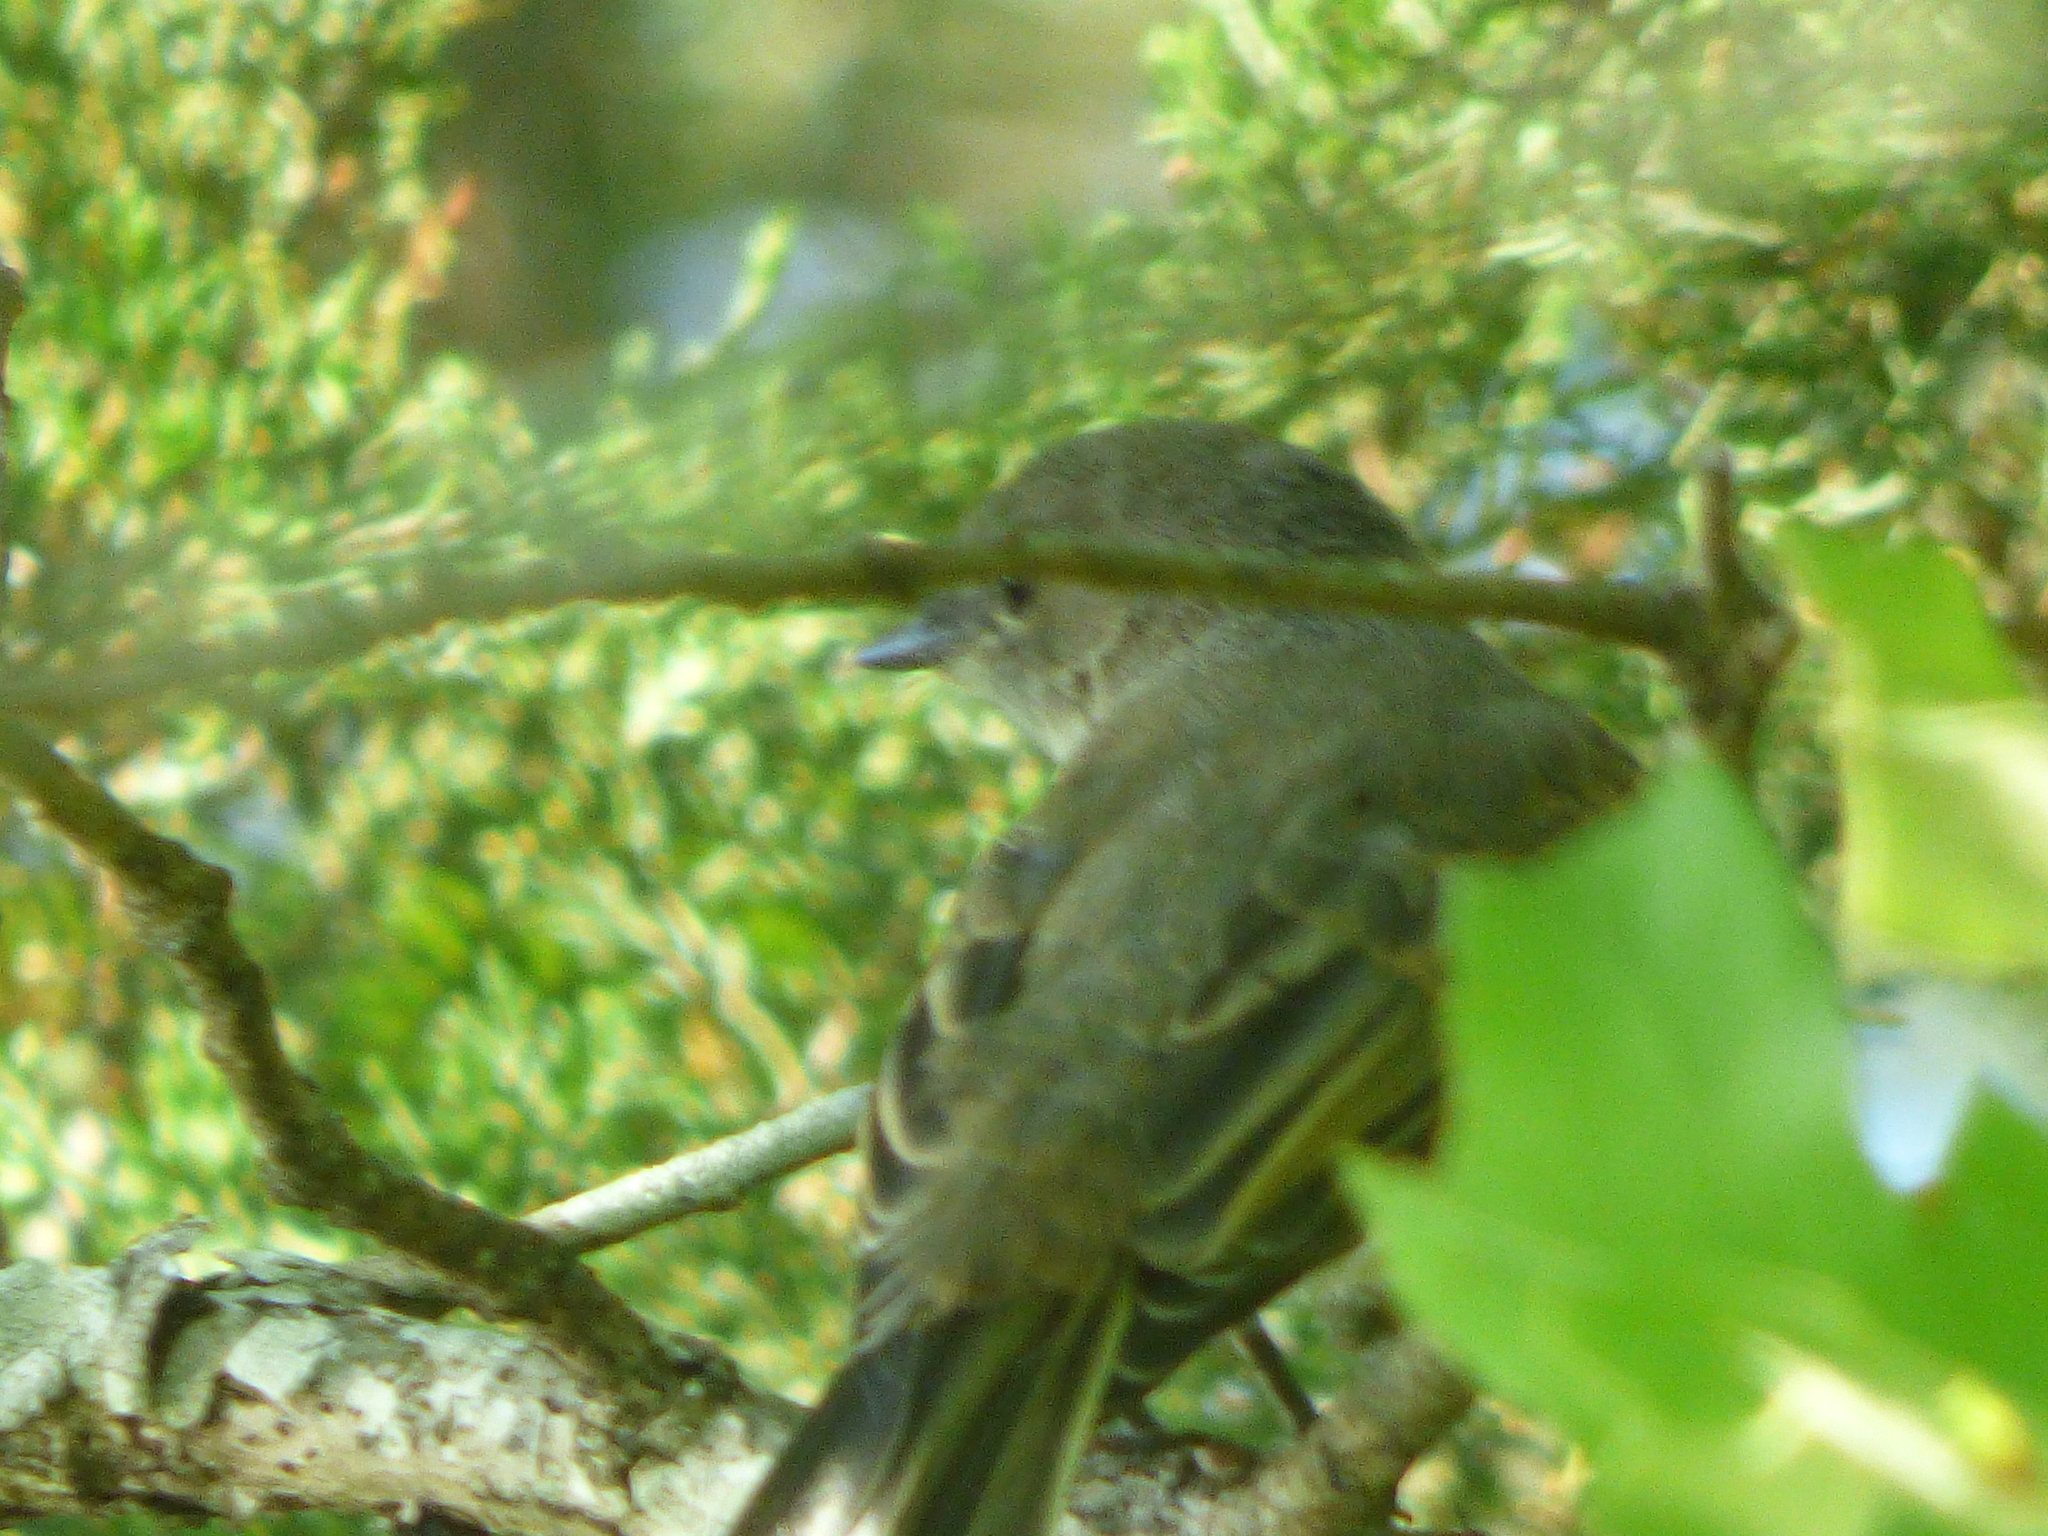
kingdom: Animalia
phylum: Chordata
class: Aves
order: Passeriformes
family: Tyrannidae
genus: Sayornis
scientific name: Sayornis phoebe
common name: Eastern phoebe
